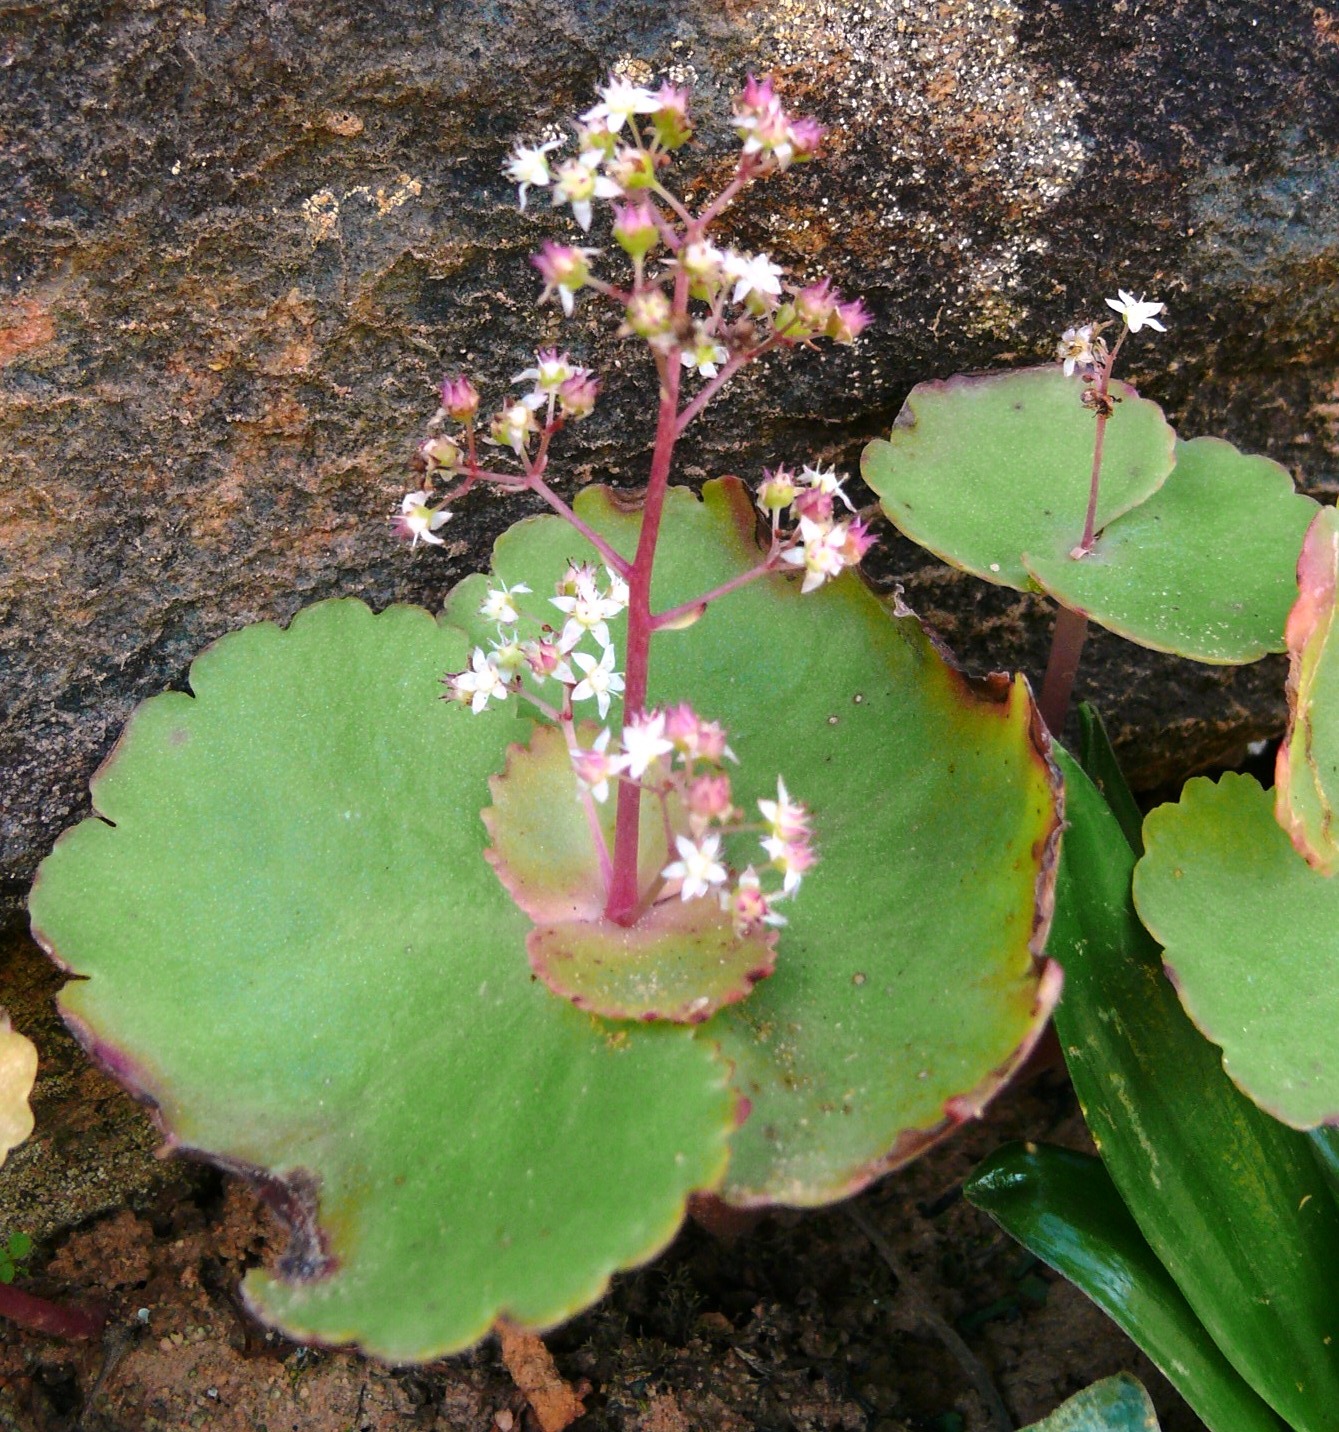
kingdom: Plantae
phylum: Tracheophyta
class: Magnoliopsida
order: Saxifragales
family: Crassulaceae
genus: Crassula
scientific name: Crassula umbella
